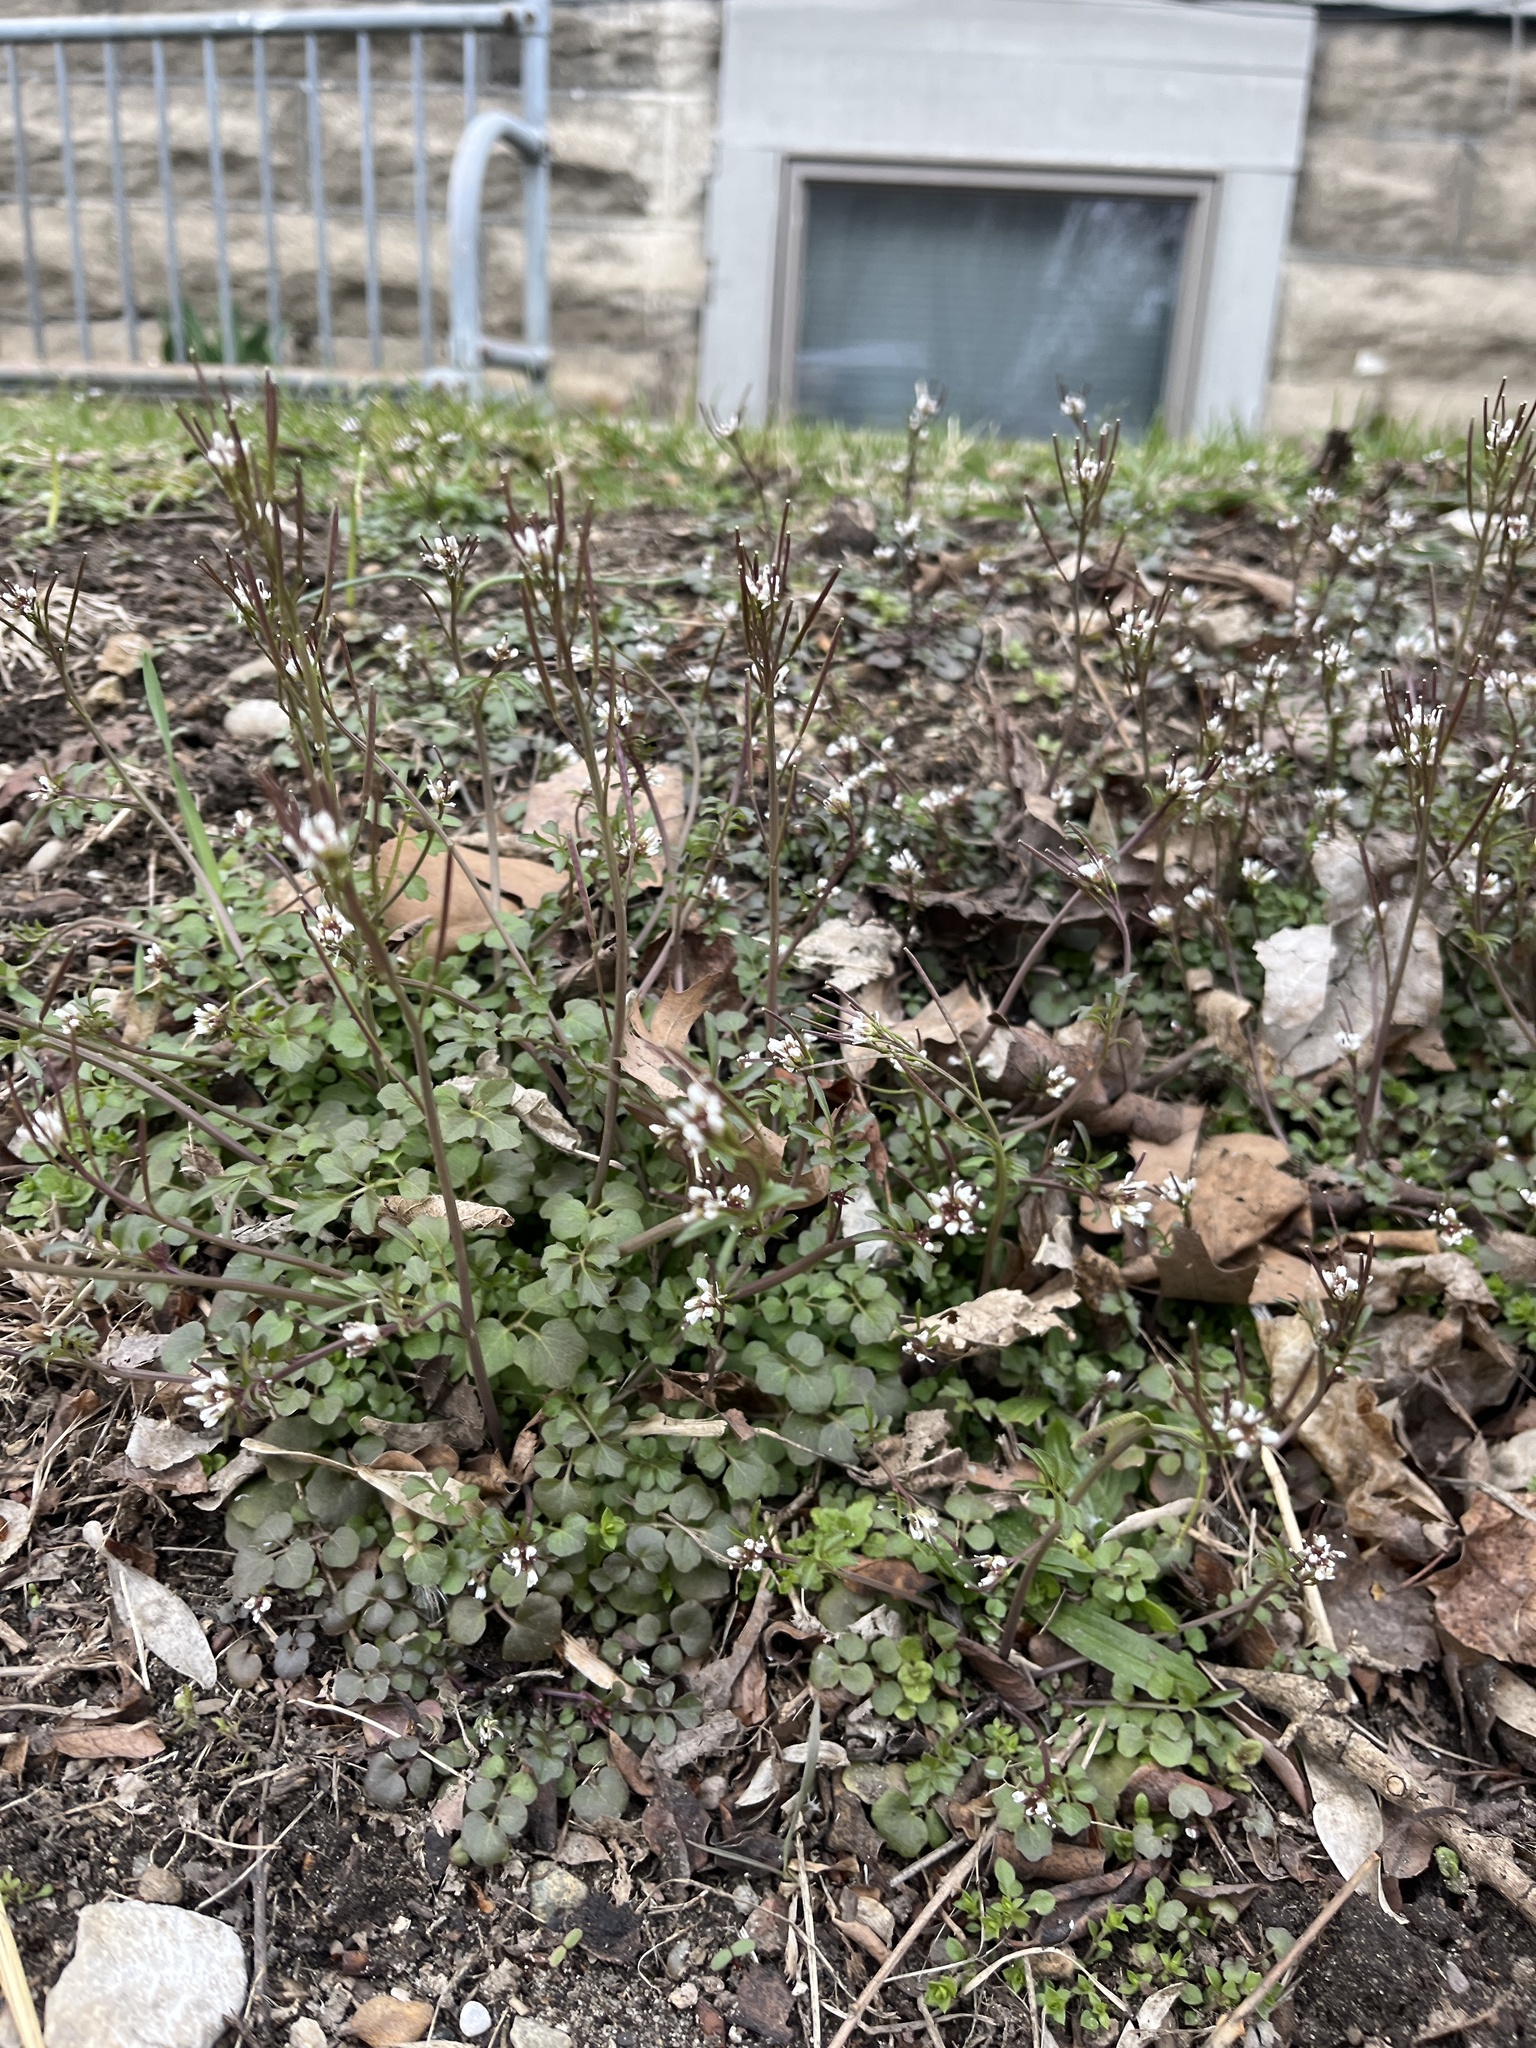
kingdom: Plantae
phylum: Tracheophyta
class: Magnoliopsida
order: Brassicales
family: Brassicaceae
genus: Cardamine
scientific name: Cardamine hirsuta
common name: Hairy bittercress
